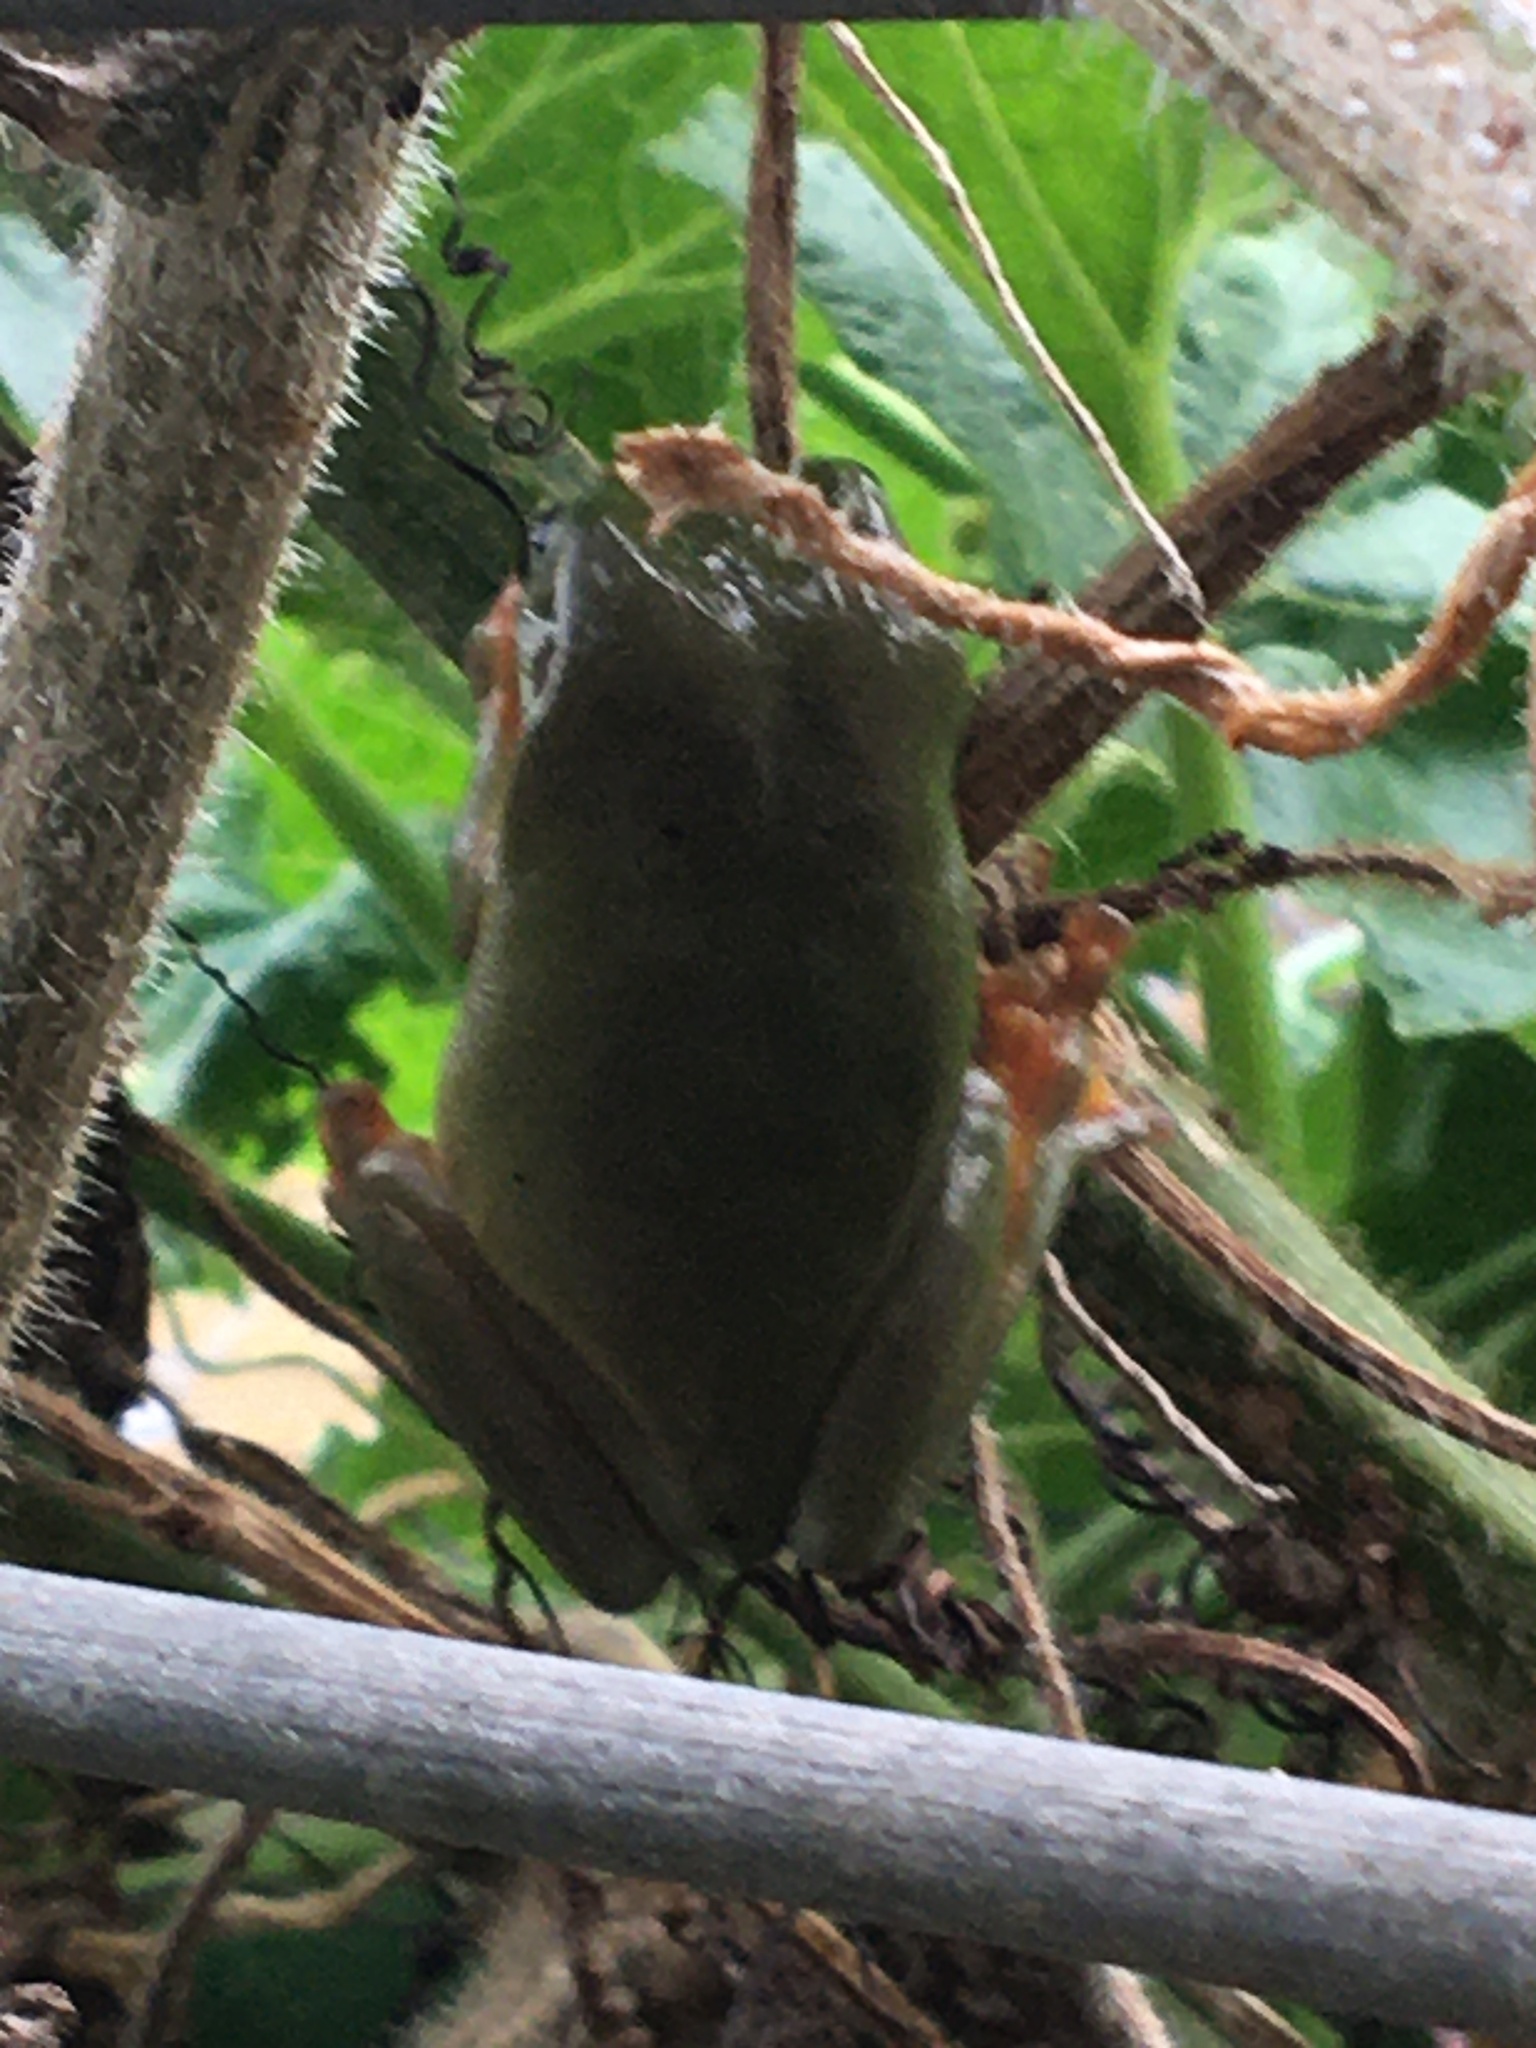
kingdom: Animalia
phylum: Chordata
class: Amphibia
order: Anura
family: Pelodryadidae
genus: Ranoidea
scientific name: Ranoidea caerulea
